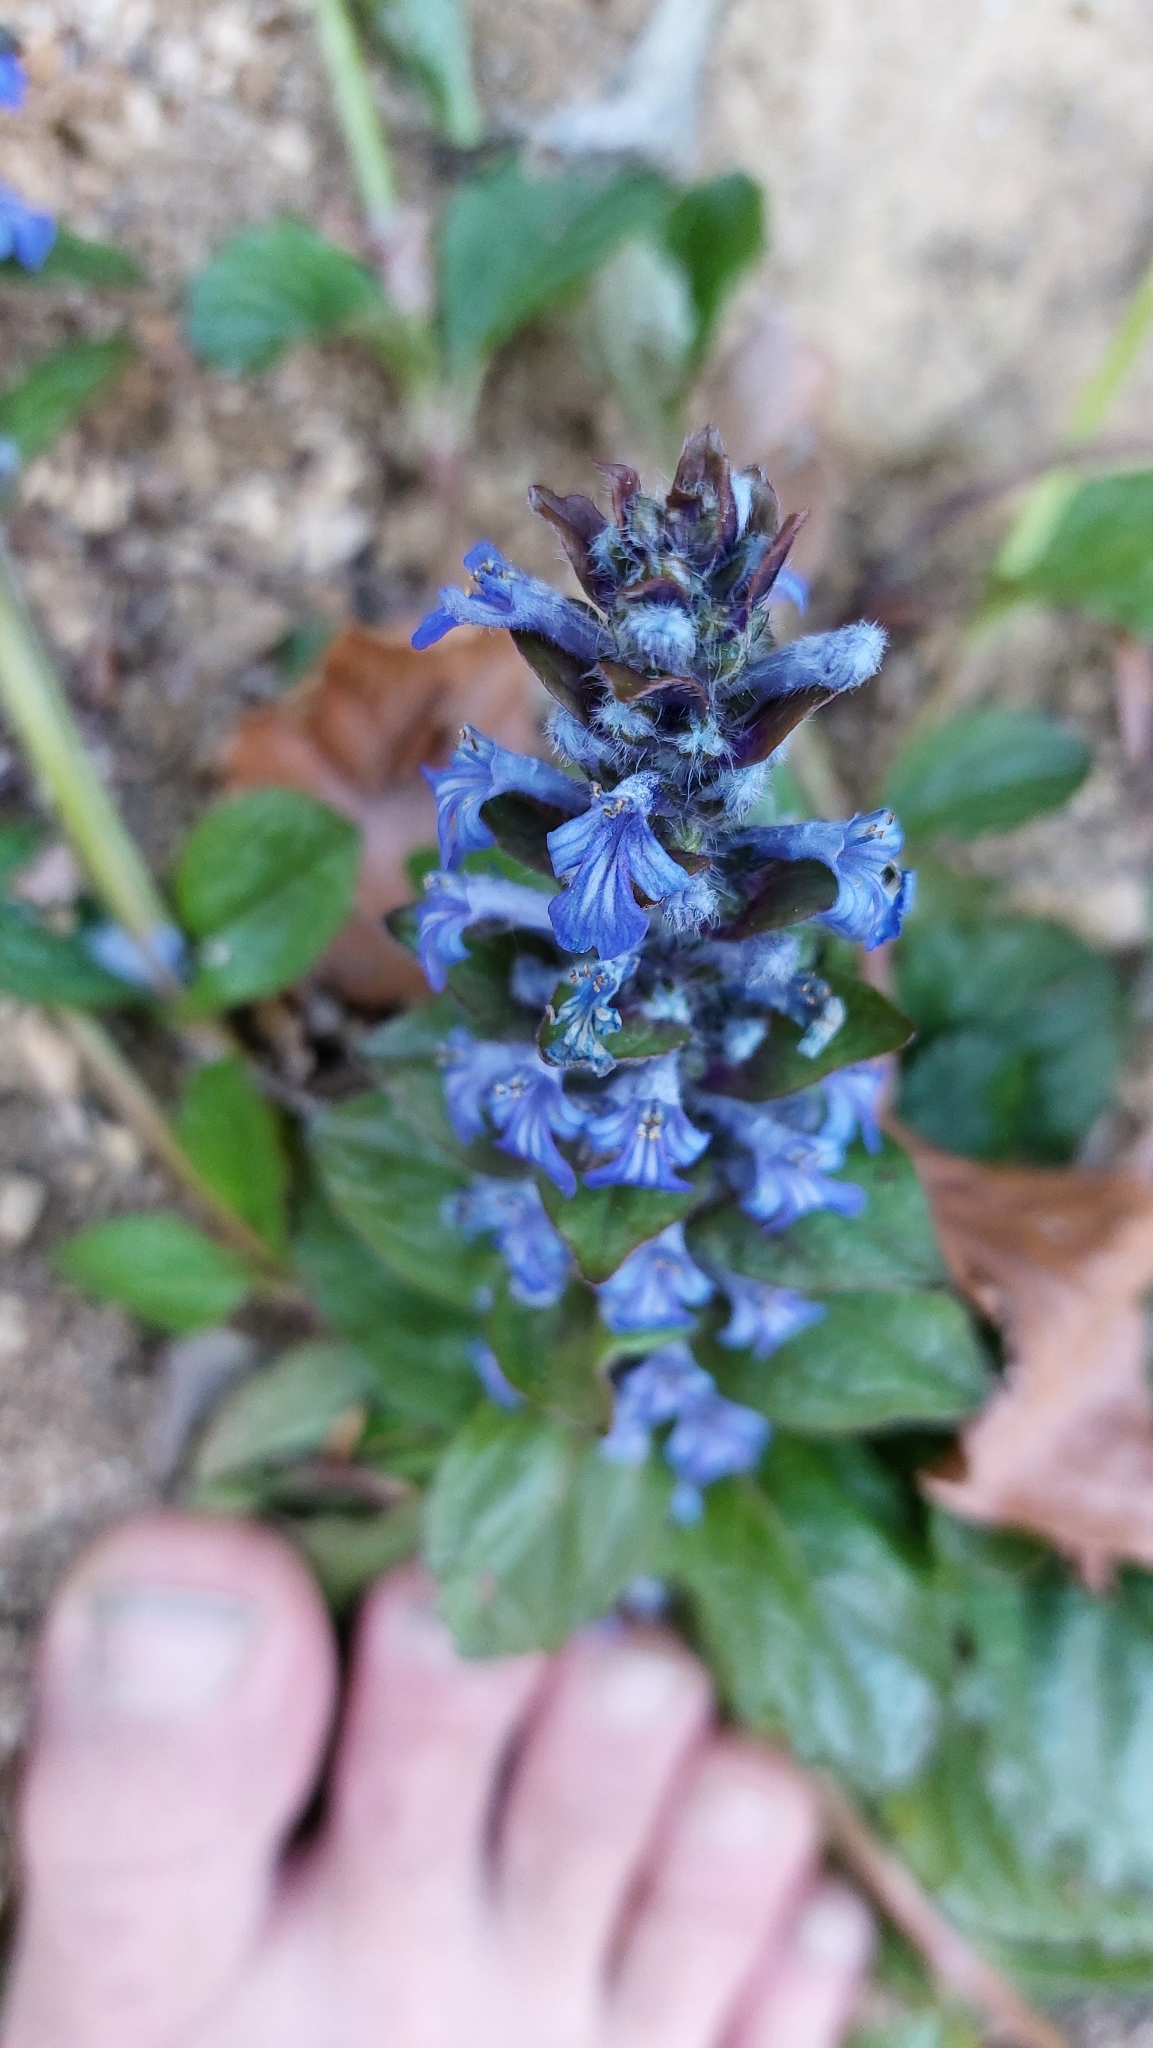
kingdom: Plantae
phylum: Tracheophyta
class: Magnoliopsida
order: Lamiales
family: Lamiaceae
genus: Ajuga
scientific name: Ajuga reptans
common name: Bugle
